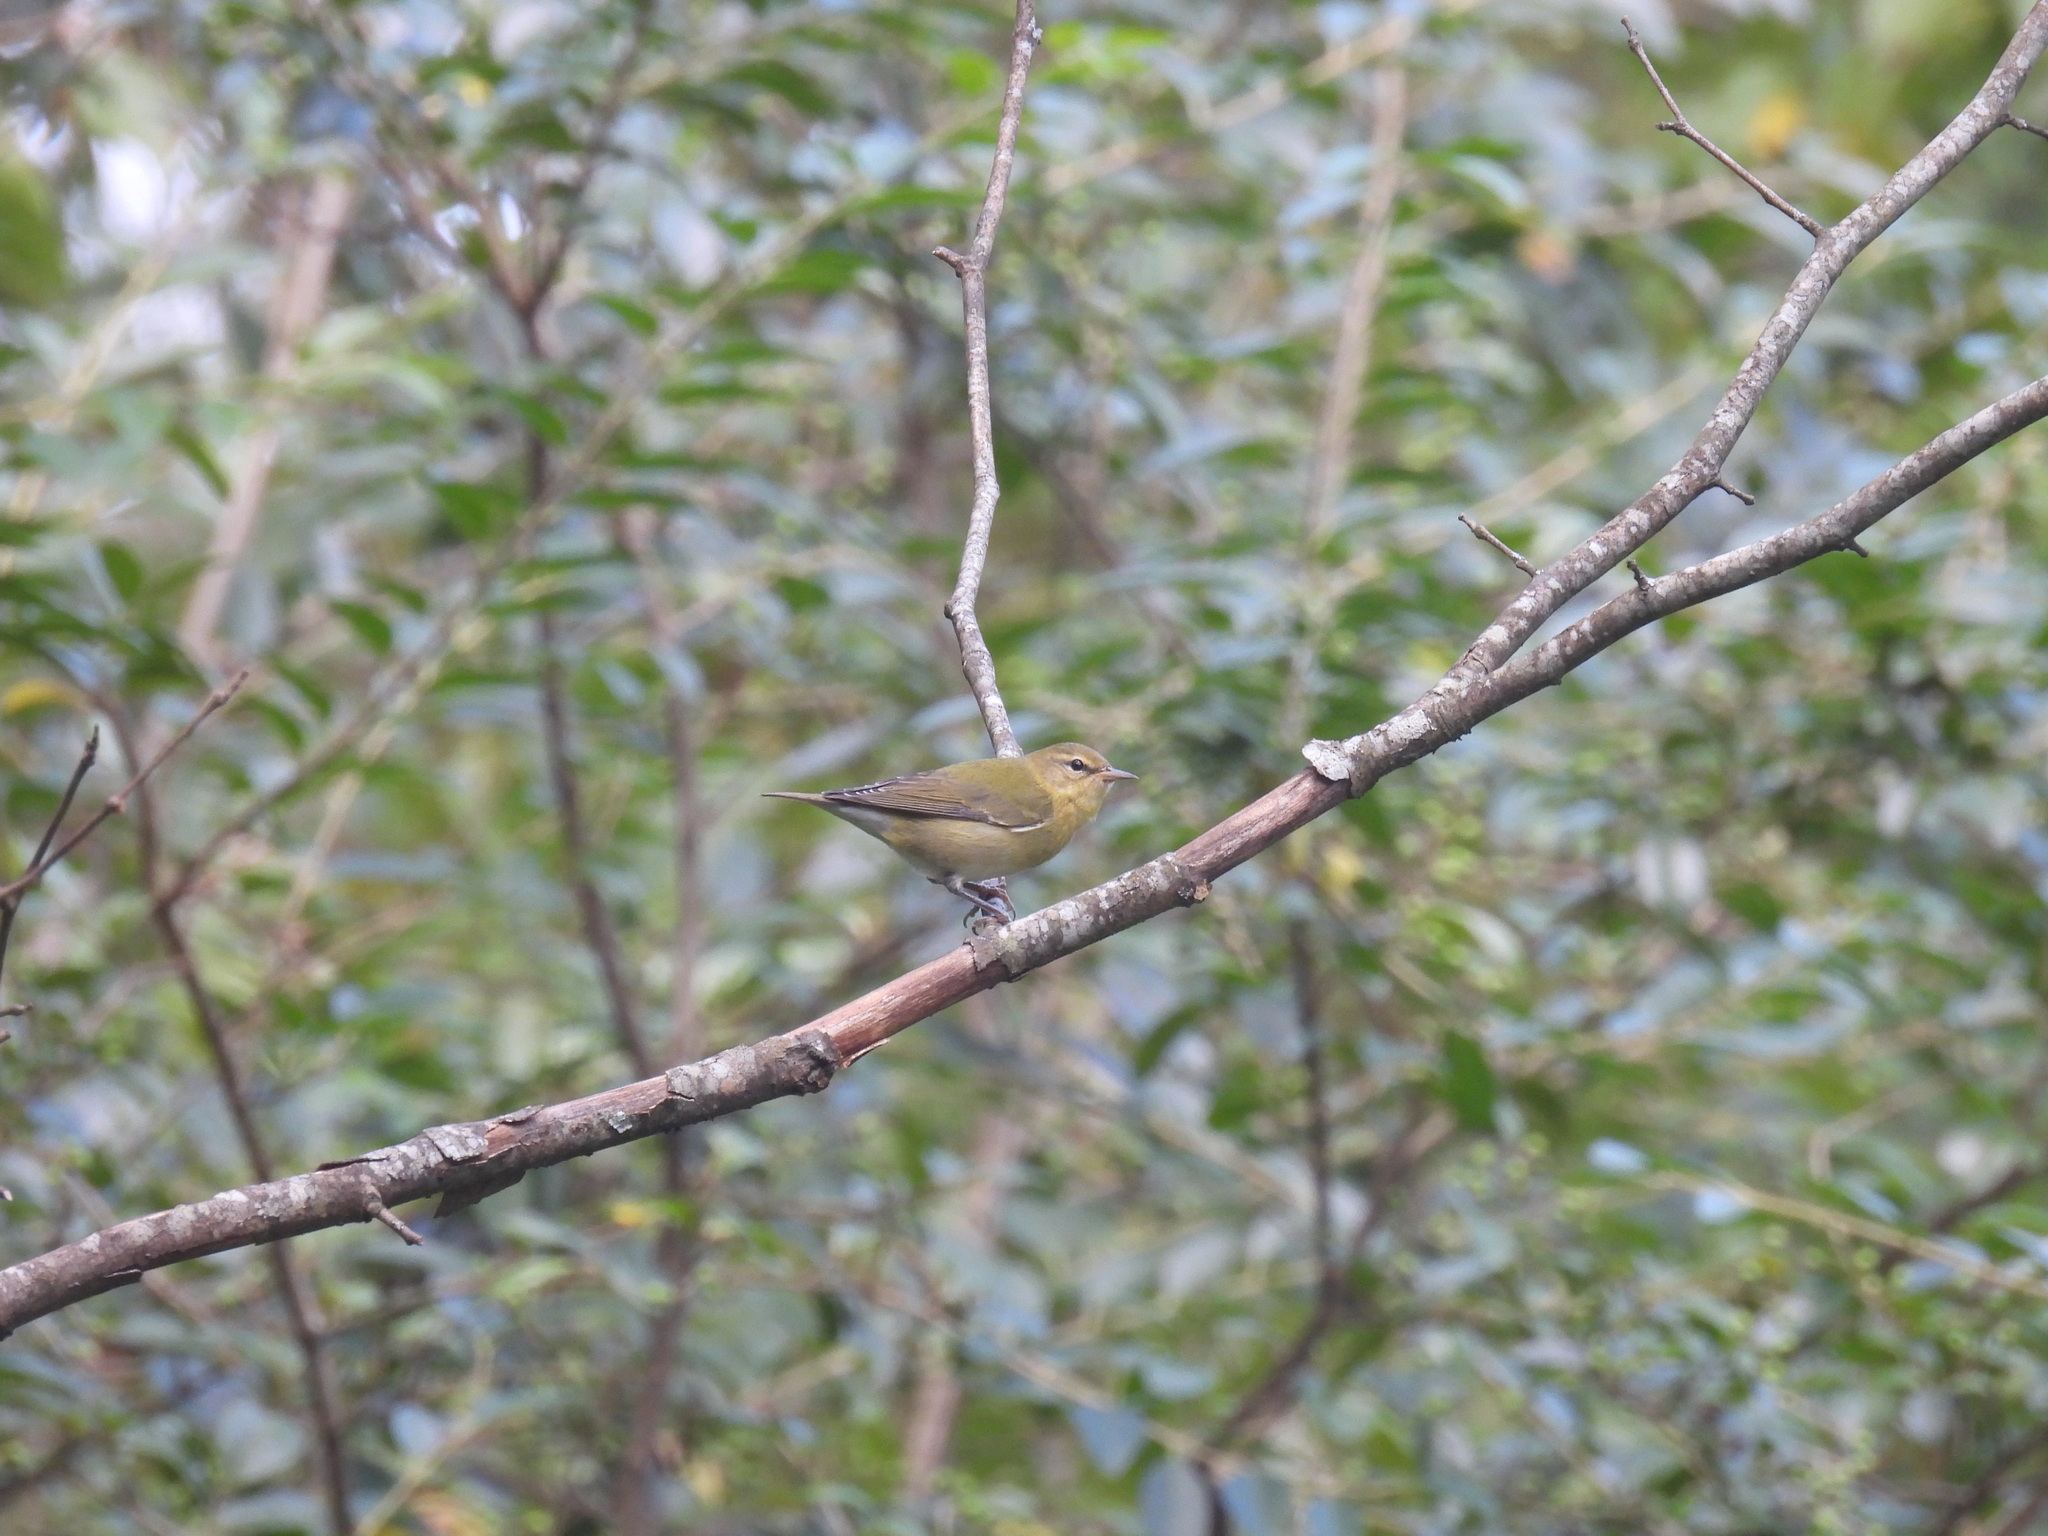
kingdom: Animalia
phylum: Chordata
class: Aves
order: Passeriformes
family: Parulidae
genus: Leiothlypis
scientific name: Leiothlypis peregrina
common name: Tennessee warbler
